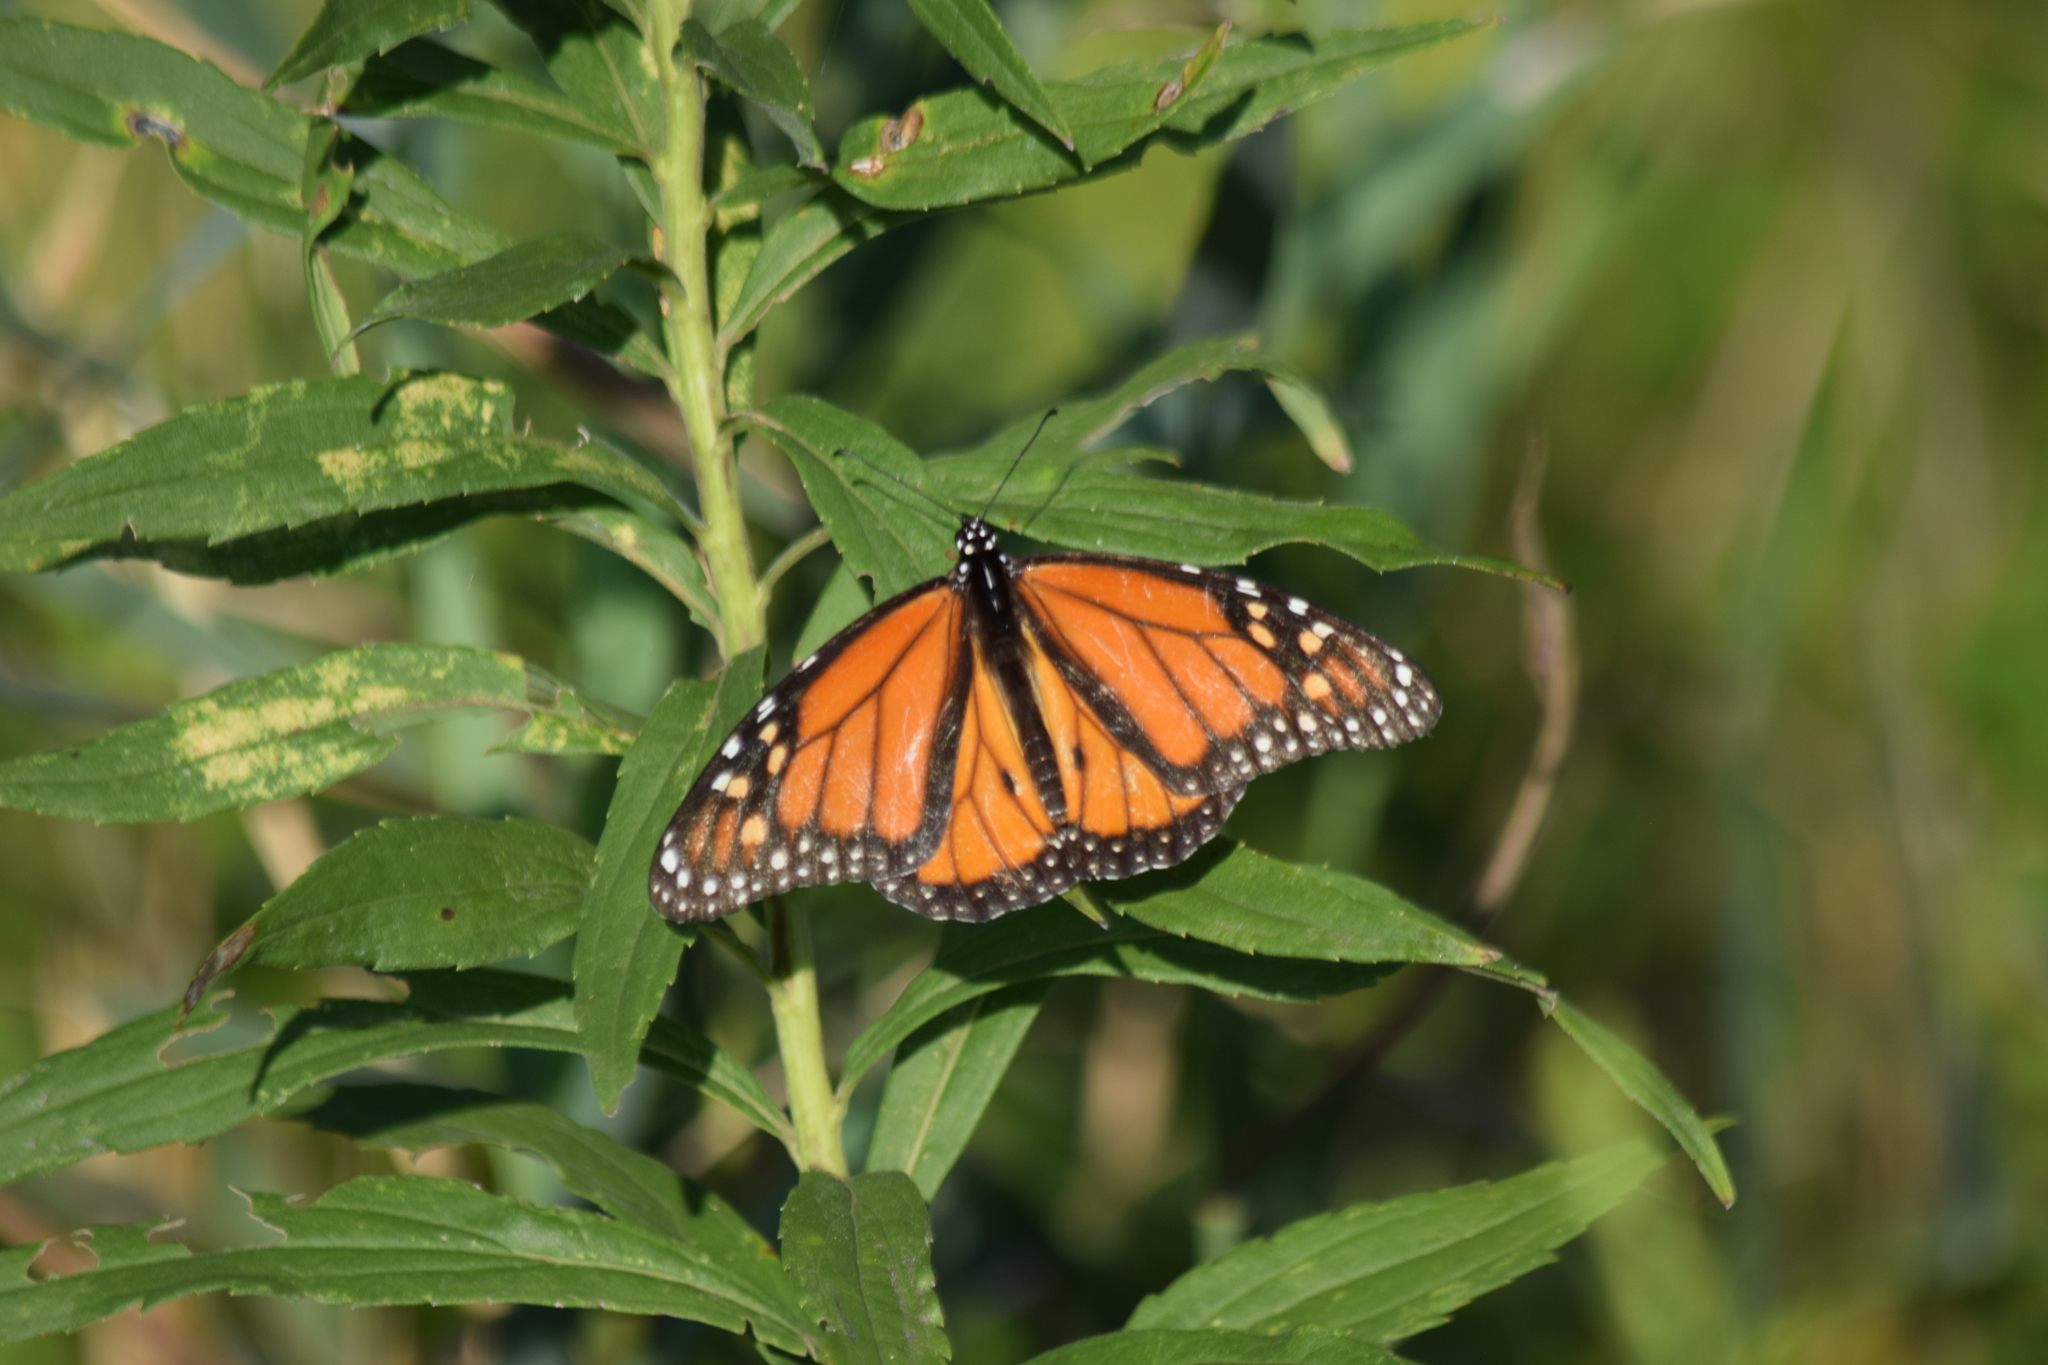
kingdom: Animalia
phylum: Arthropoda
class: Insecta
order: Lepidoptera
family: Nymphalidae
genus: Danaus
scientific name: Danaus plexippus
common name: Monarch
